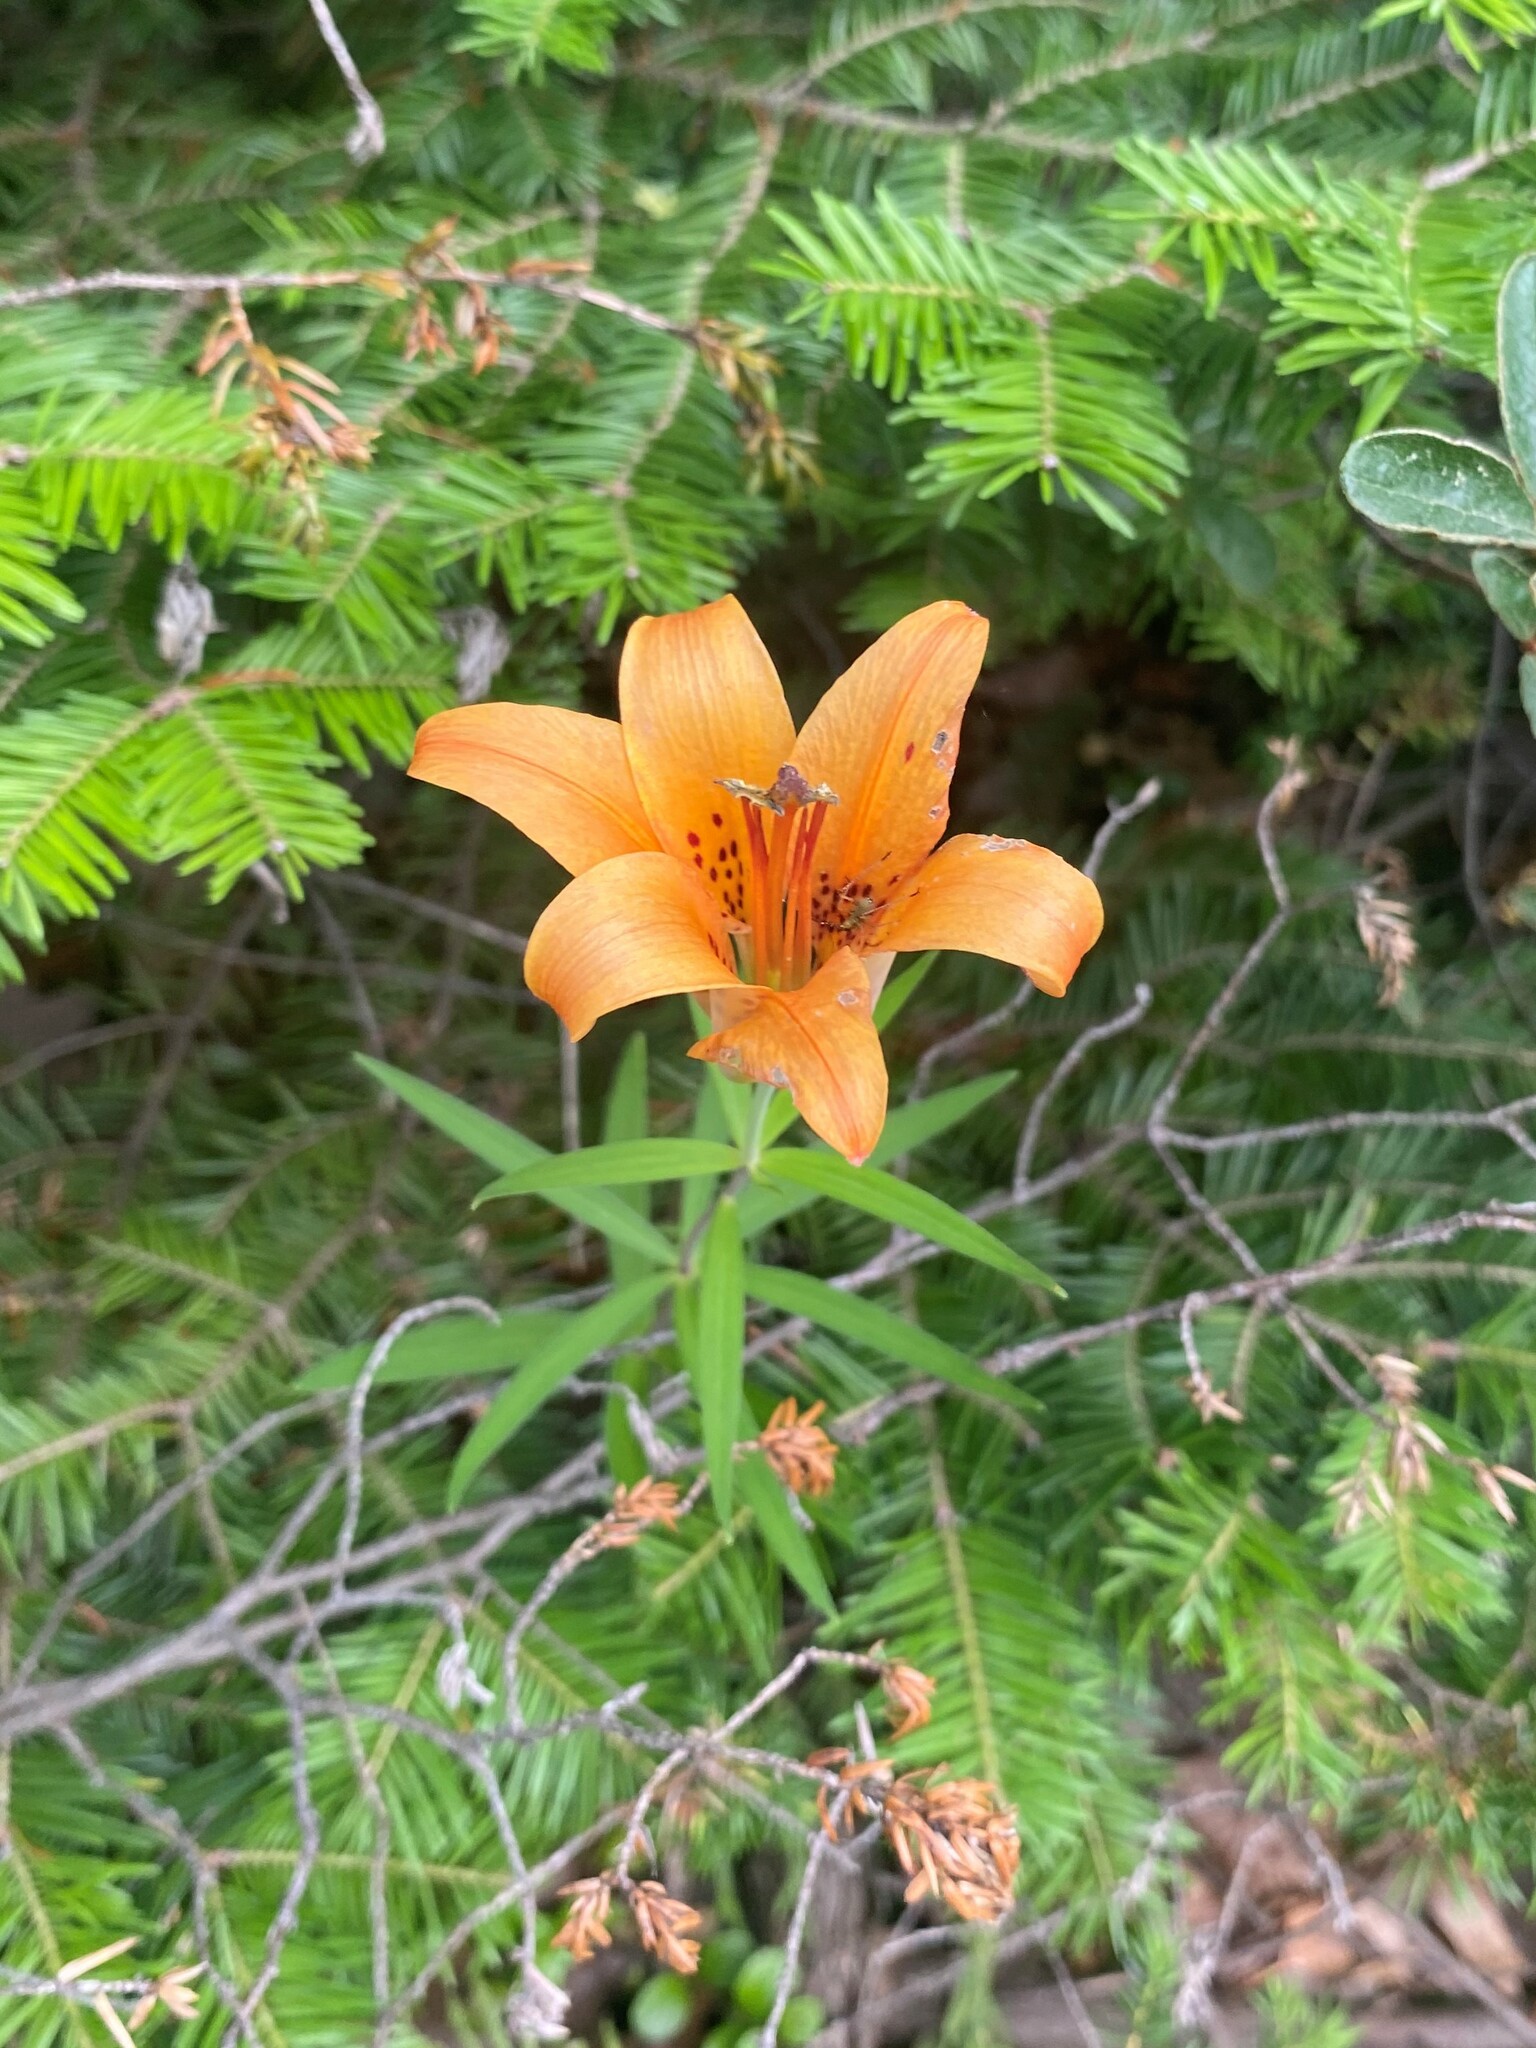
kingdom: Plantae
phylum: Tracheophyta
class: Liliopsida
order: Liliales
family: Liliaceae
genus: Lilium
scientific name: Lilium philadelphicum
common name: Red lily
